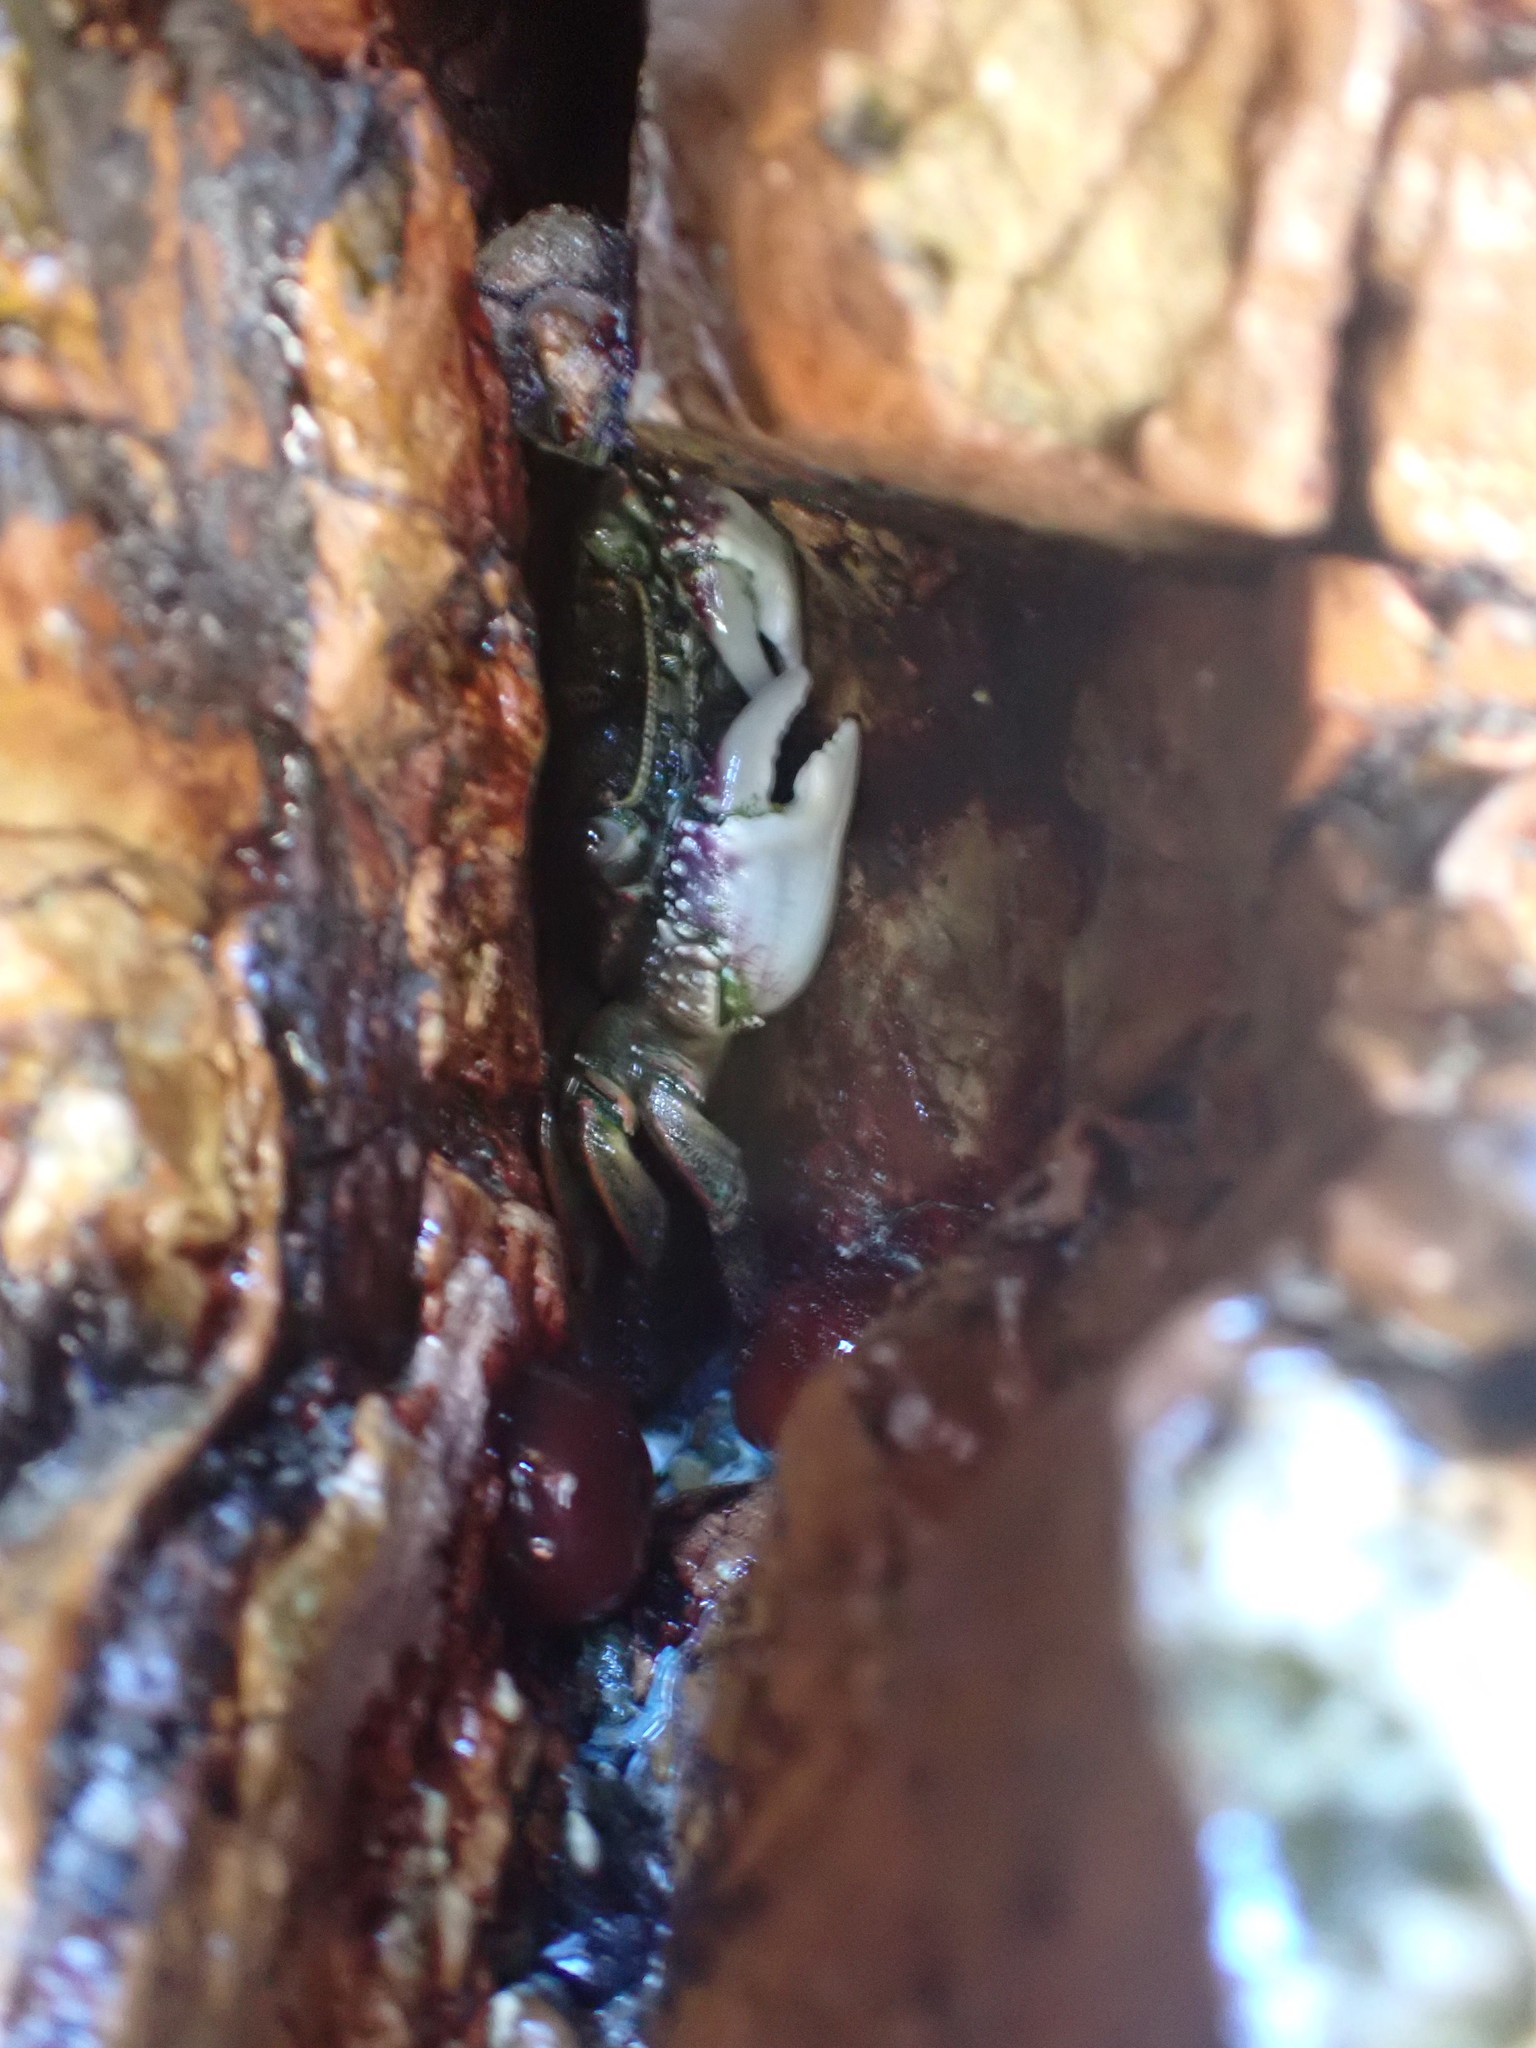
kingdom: Animalia
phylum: Arthropoda
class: Malacostraca
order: Decapoda
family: Grapsidae
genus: Leptograpsus
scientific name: Leptograpsus variegatus
